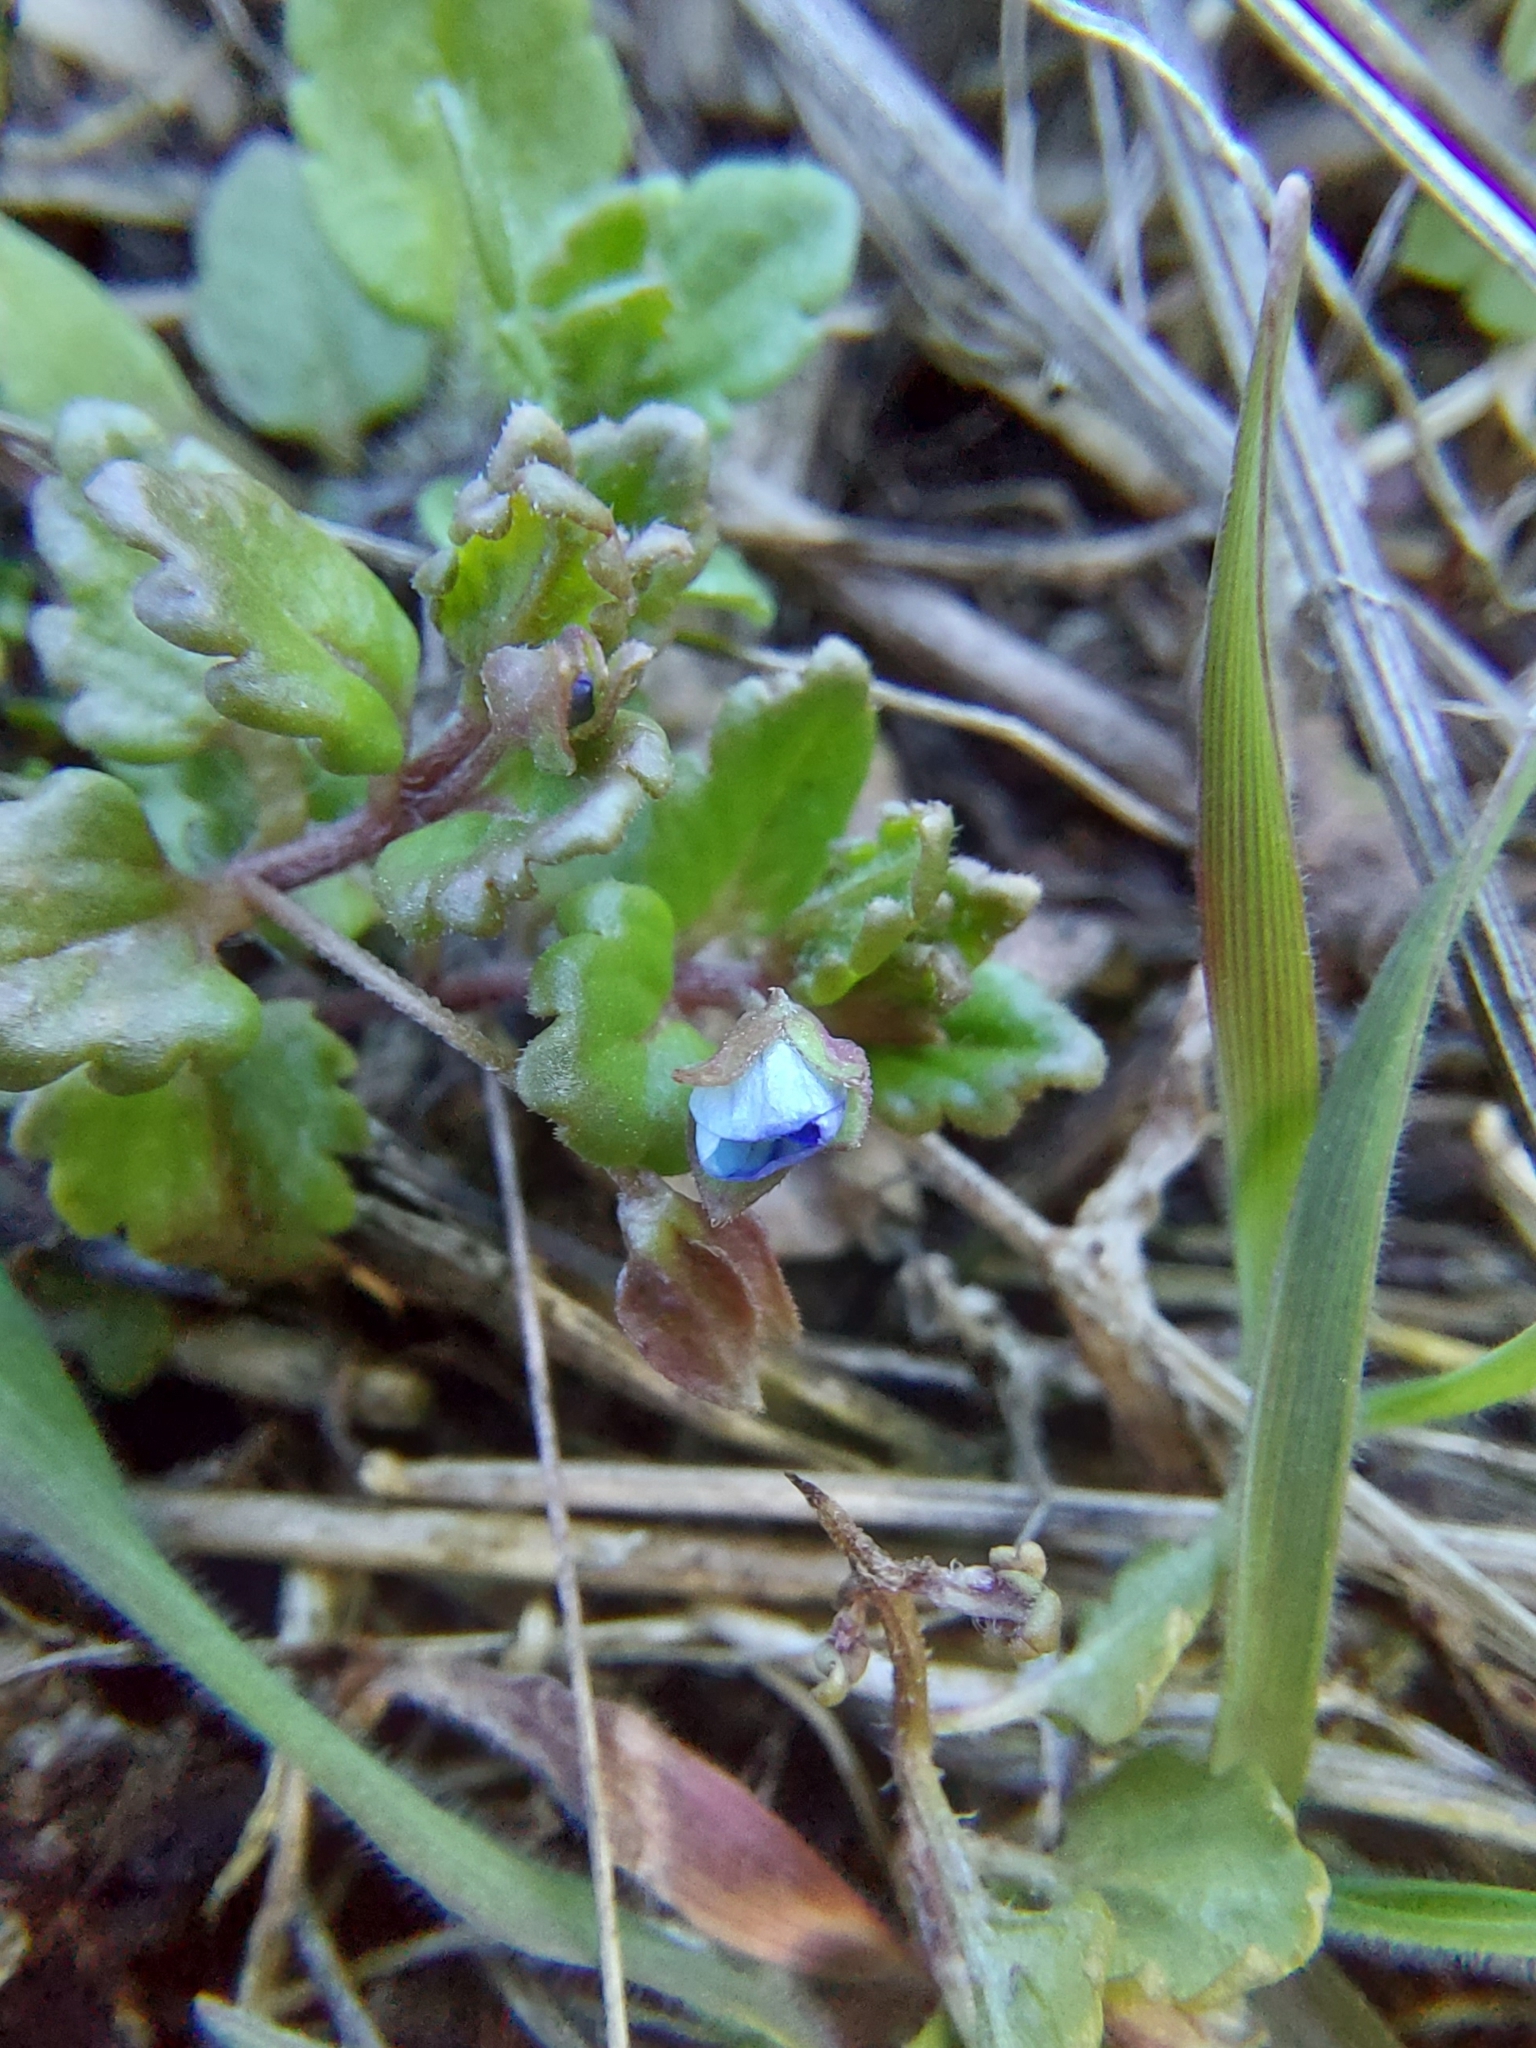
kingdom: Plantae
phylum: Tracheophyta
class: Magnoliopsida
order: Lamiales
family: Plantaginaceae
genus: Veronica
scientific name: Veronica polita
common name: Grey field-speedwell
